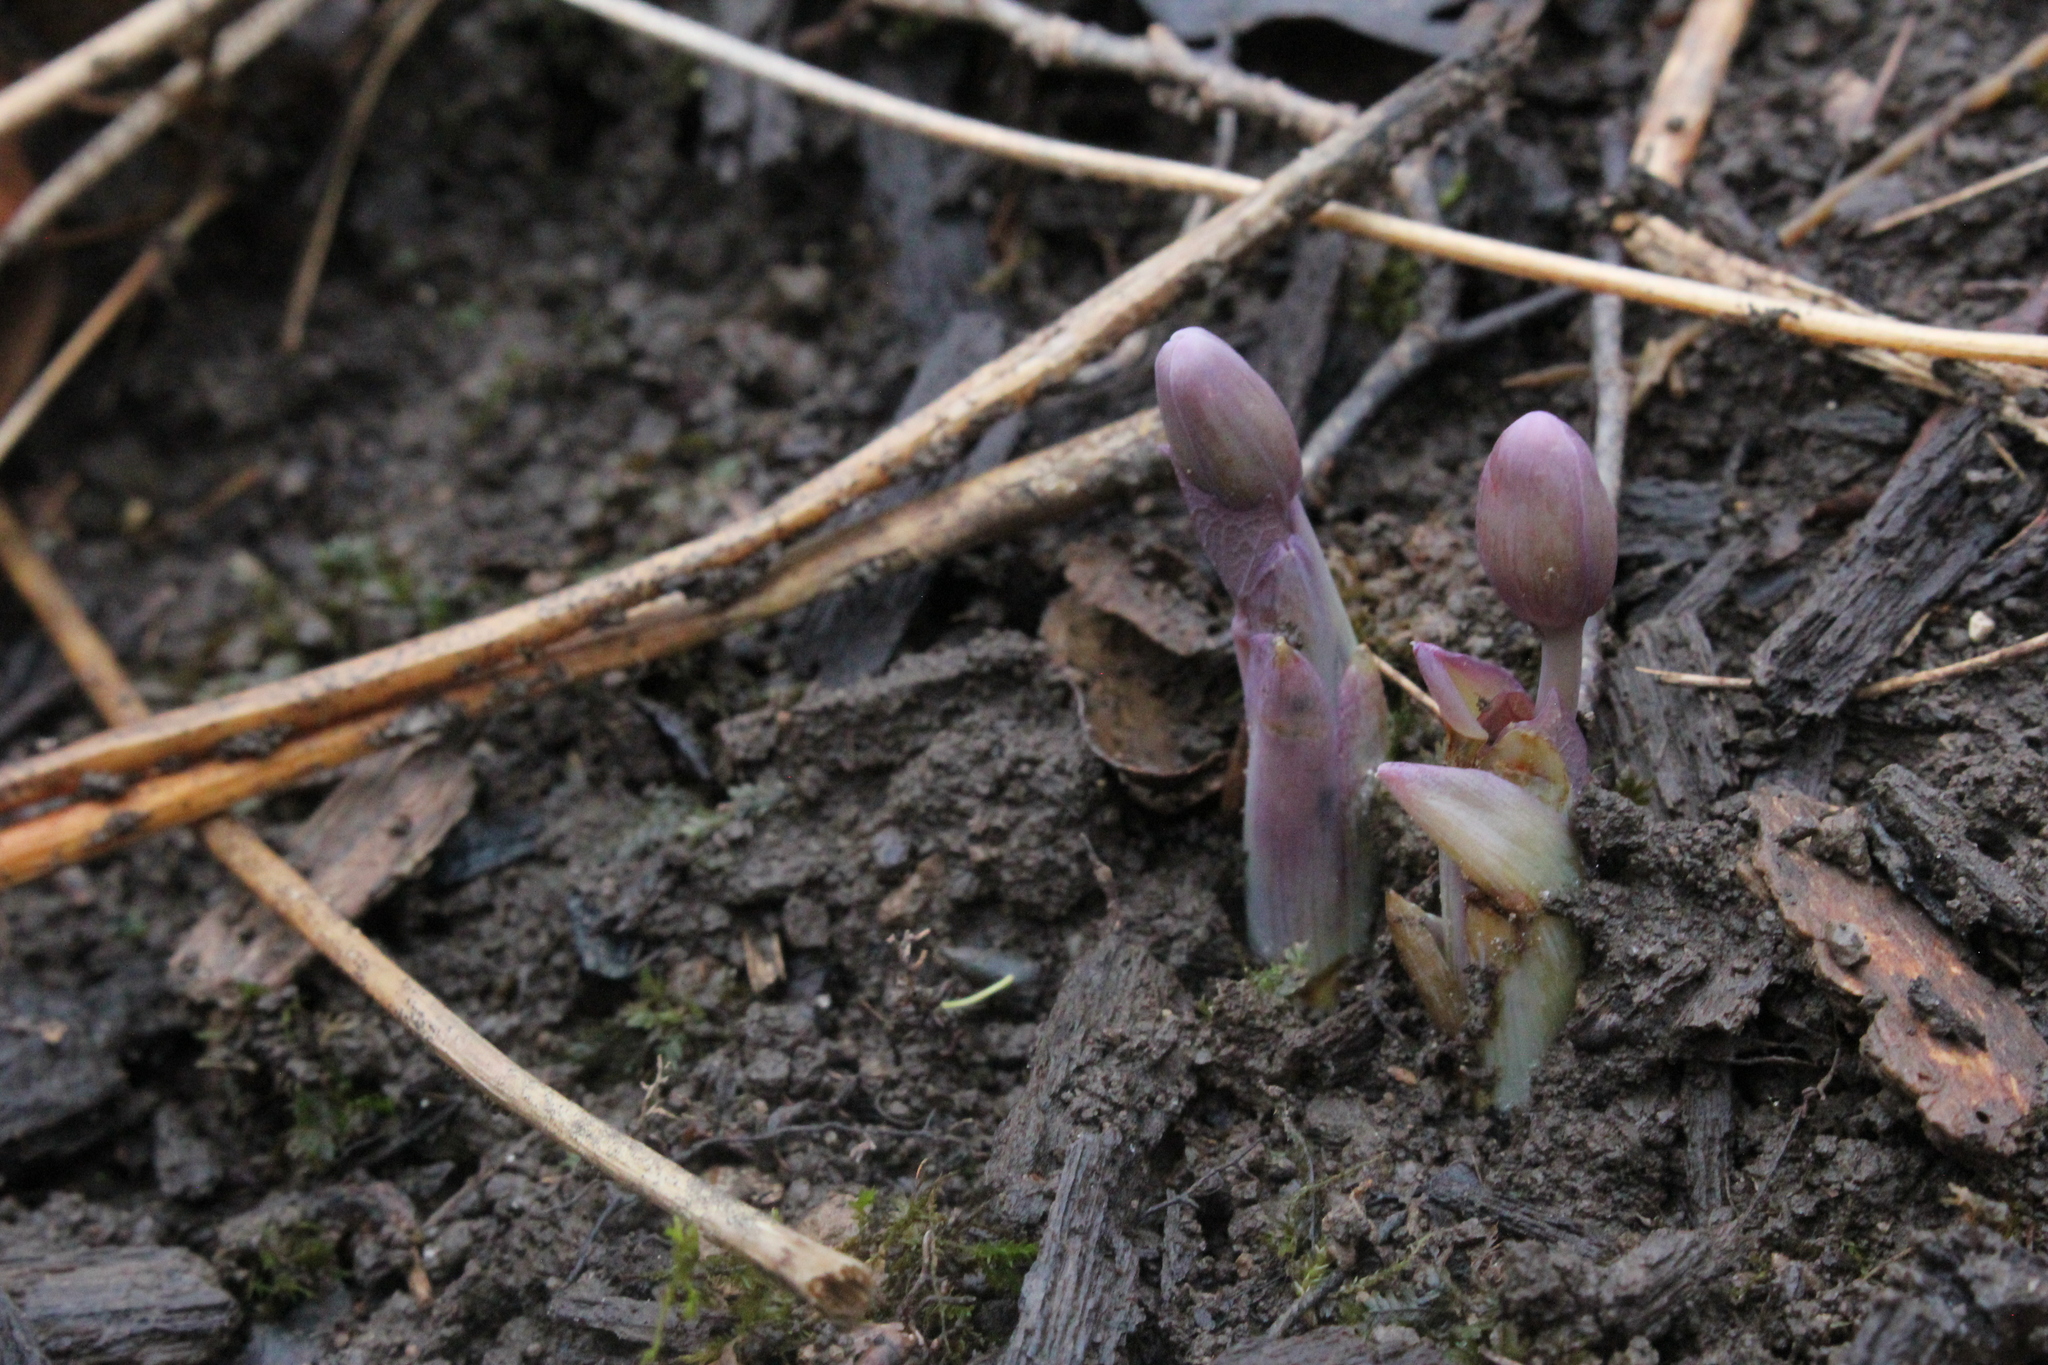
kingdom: Plantae
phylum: Tracheophyta
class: Magnoliopsida
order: Ranunculales
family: Berberidaceae
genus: Jeffersonia
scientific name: Jeffersonia diphylla
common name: Rheumatism-root
